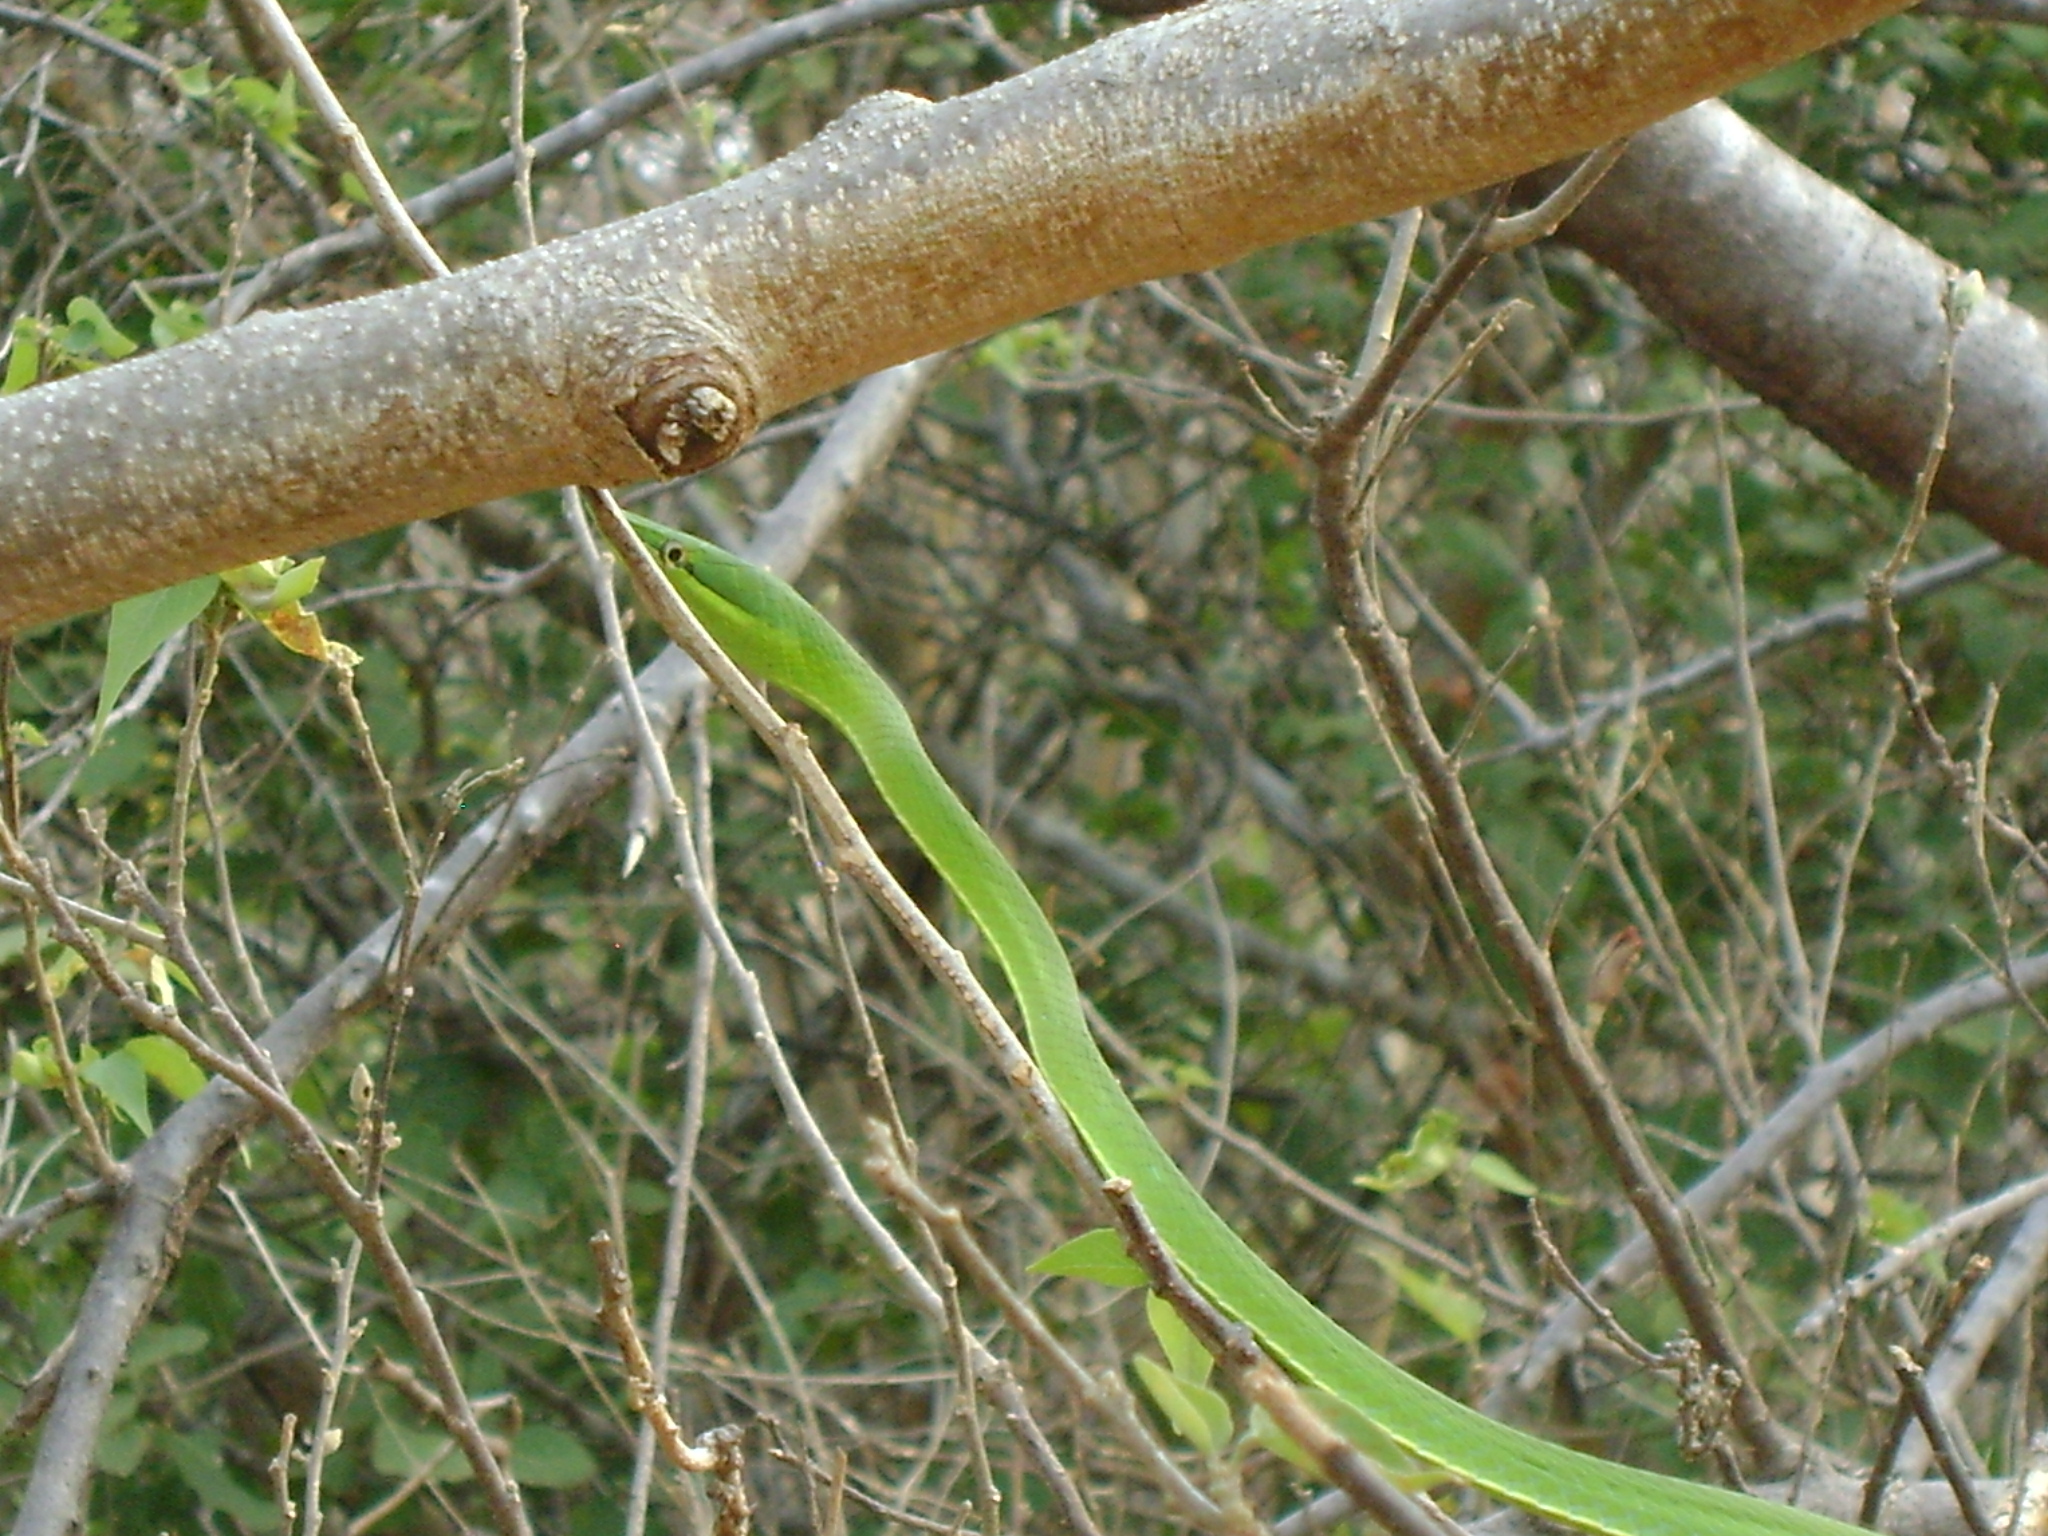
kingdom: Animalia
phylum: Chordata
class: Squamata
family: Colubridae
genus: Oxybelis
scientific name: Oxybelis fulgidus
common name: Green vine snake
